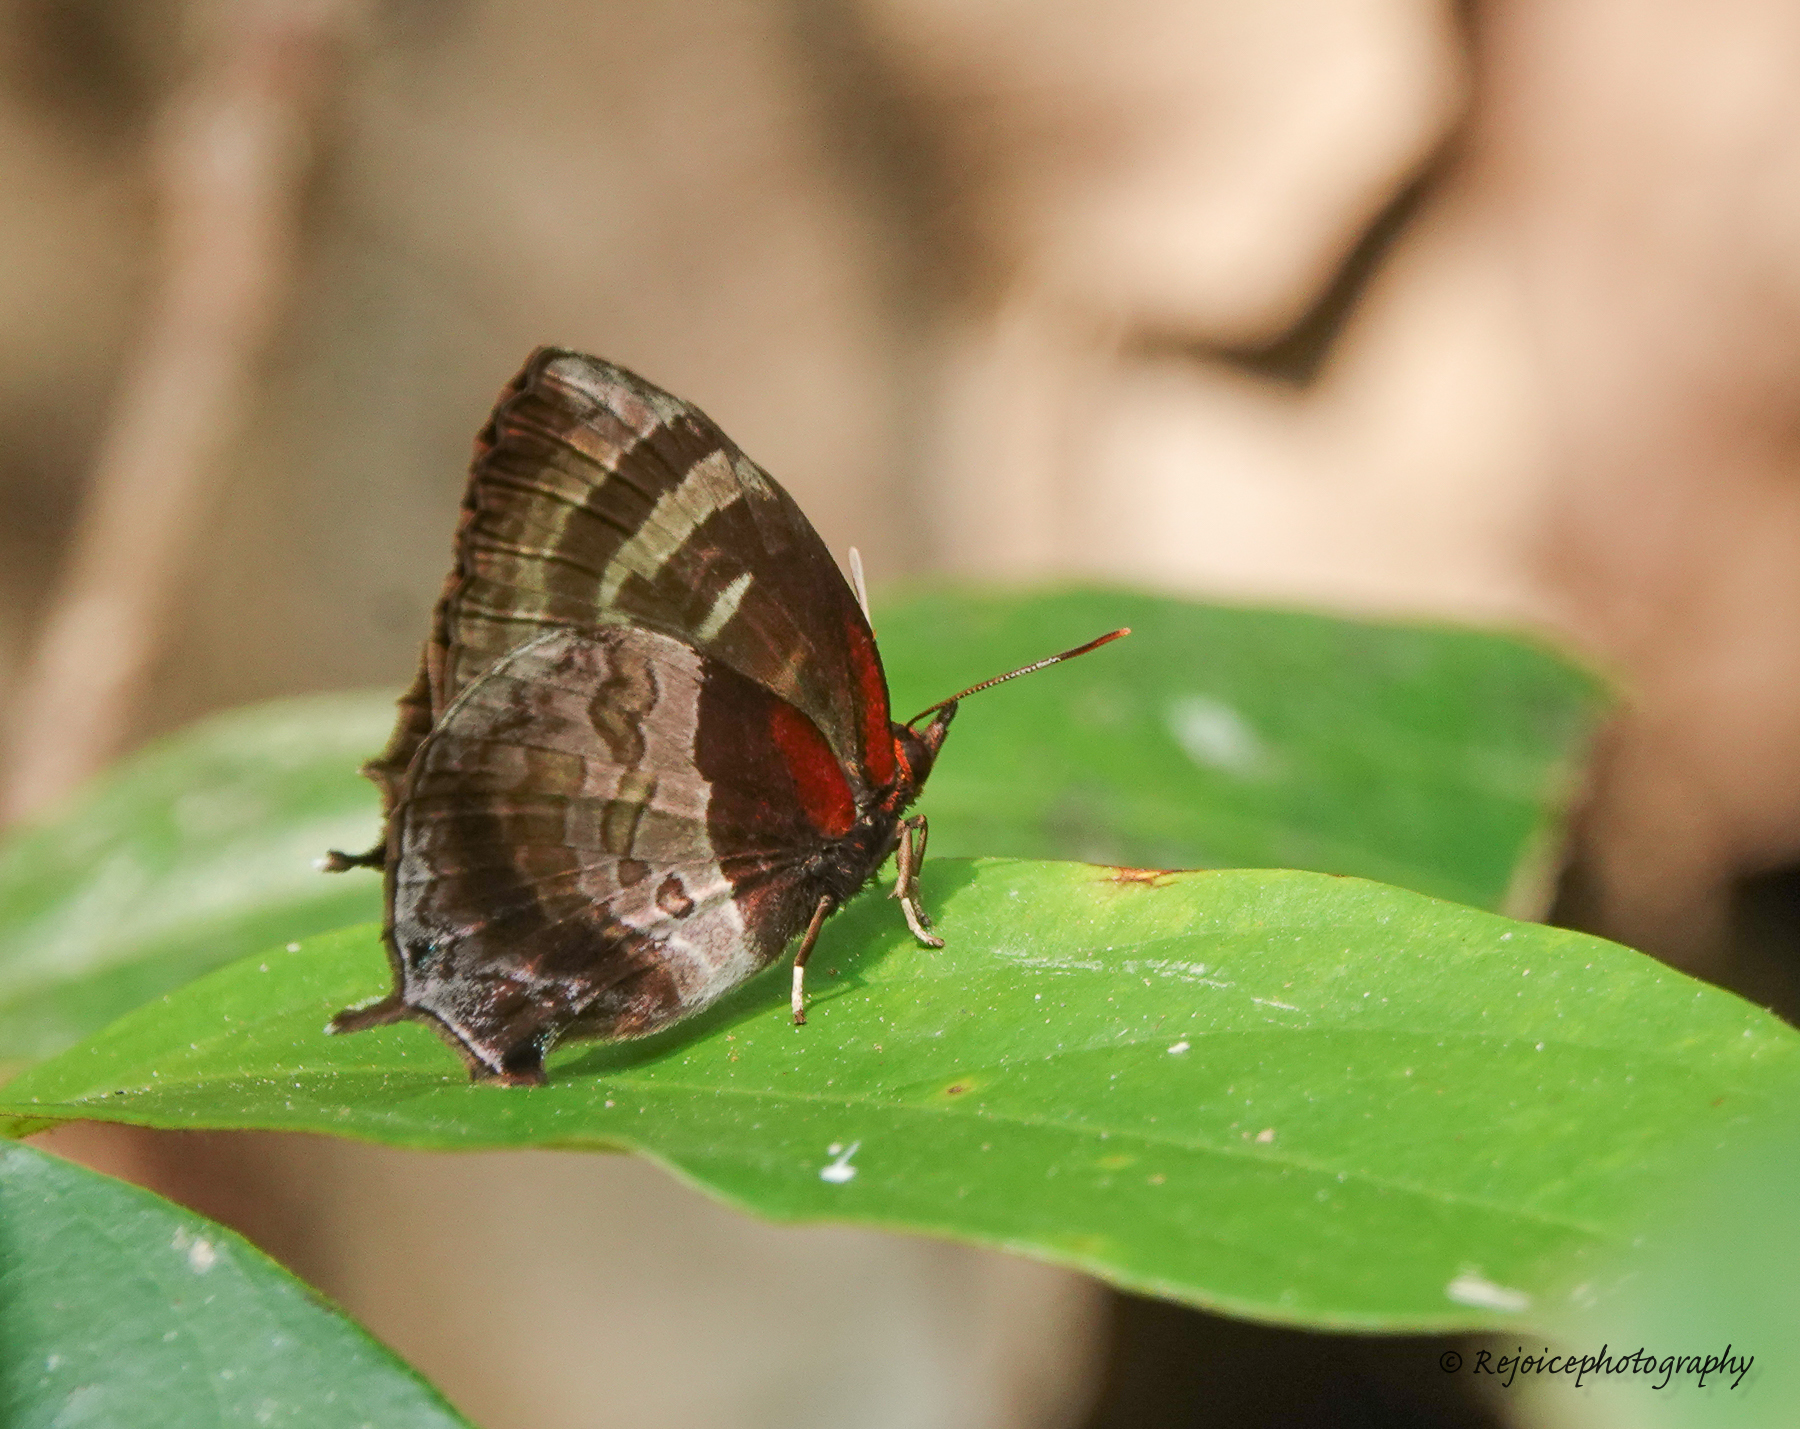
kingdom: Animalia
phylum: Arthropoda
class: Insecta
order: Lepidoptera
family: Lycaenidae
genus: Flos
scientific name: Flos apidanus
